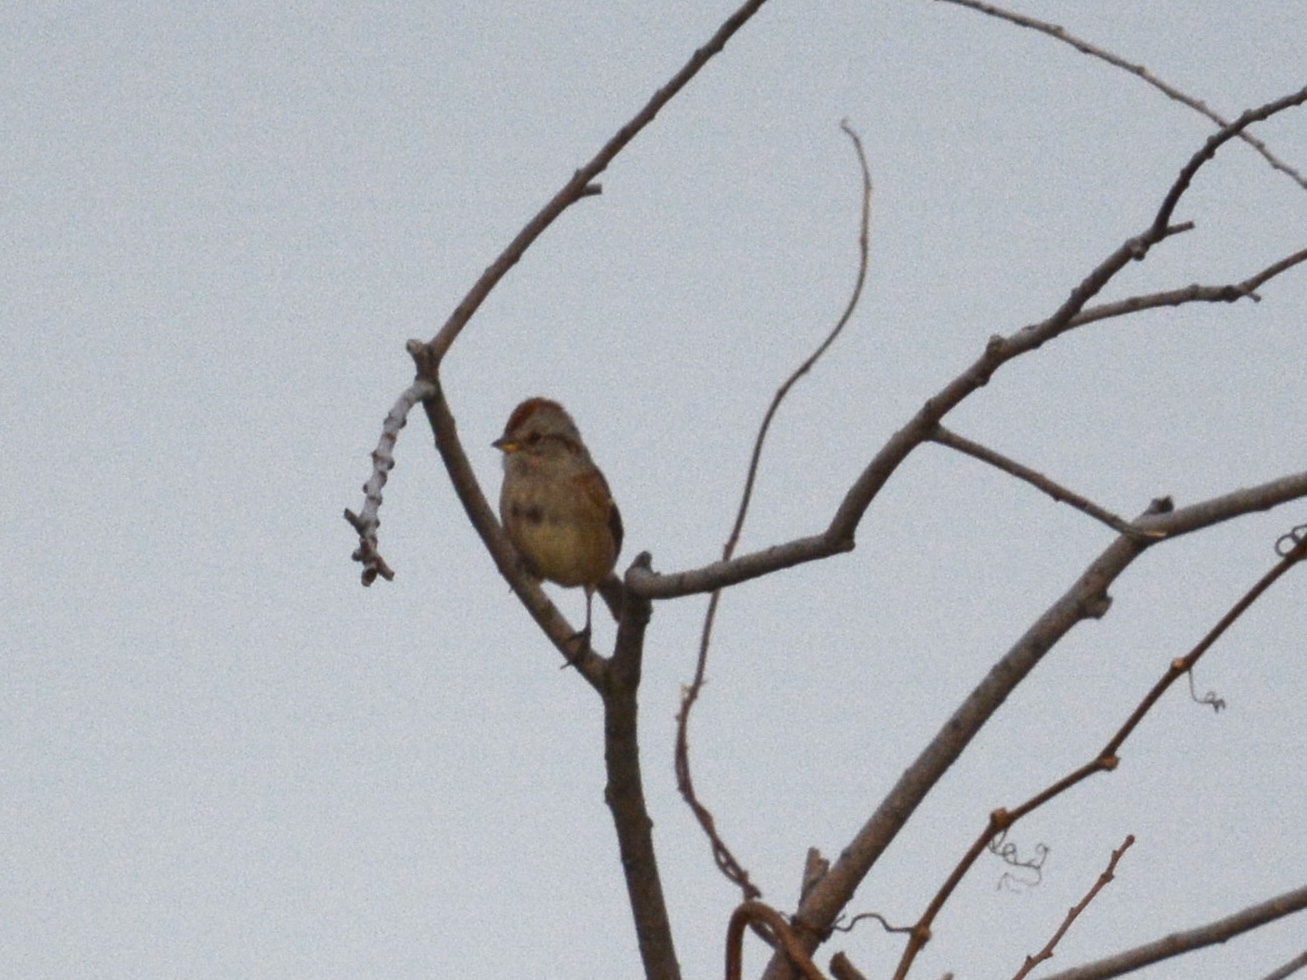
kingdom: Animalia
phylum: Chordata
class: Aves
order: Passeriformes
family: Passerellidae
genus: Spizelloides
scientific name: Spizelloides arborea
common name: American tree sparrow
